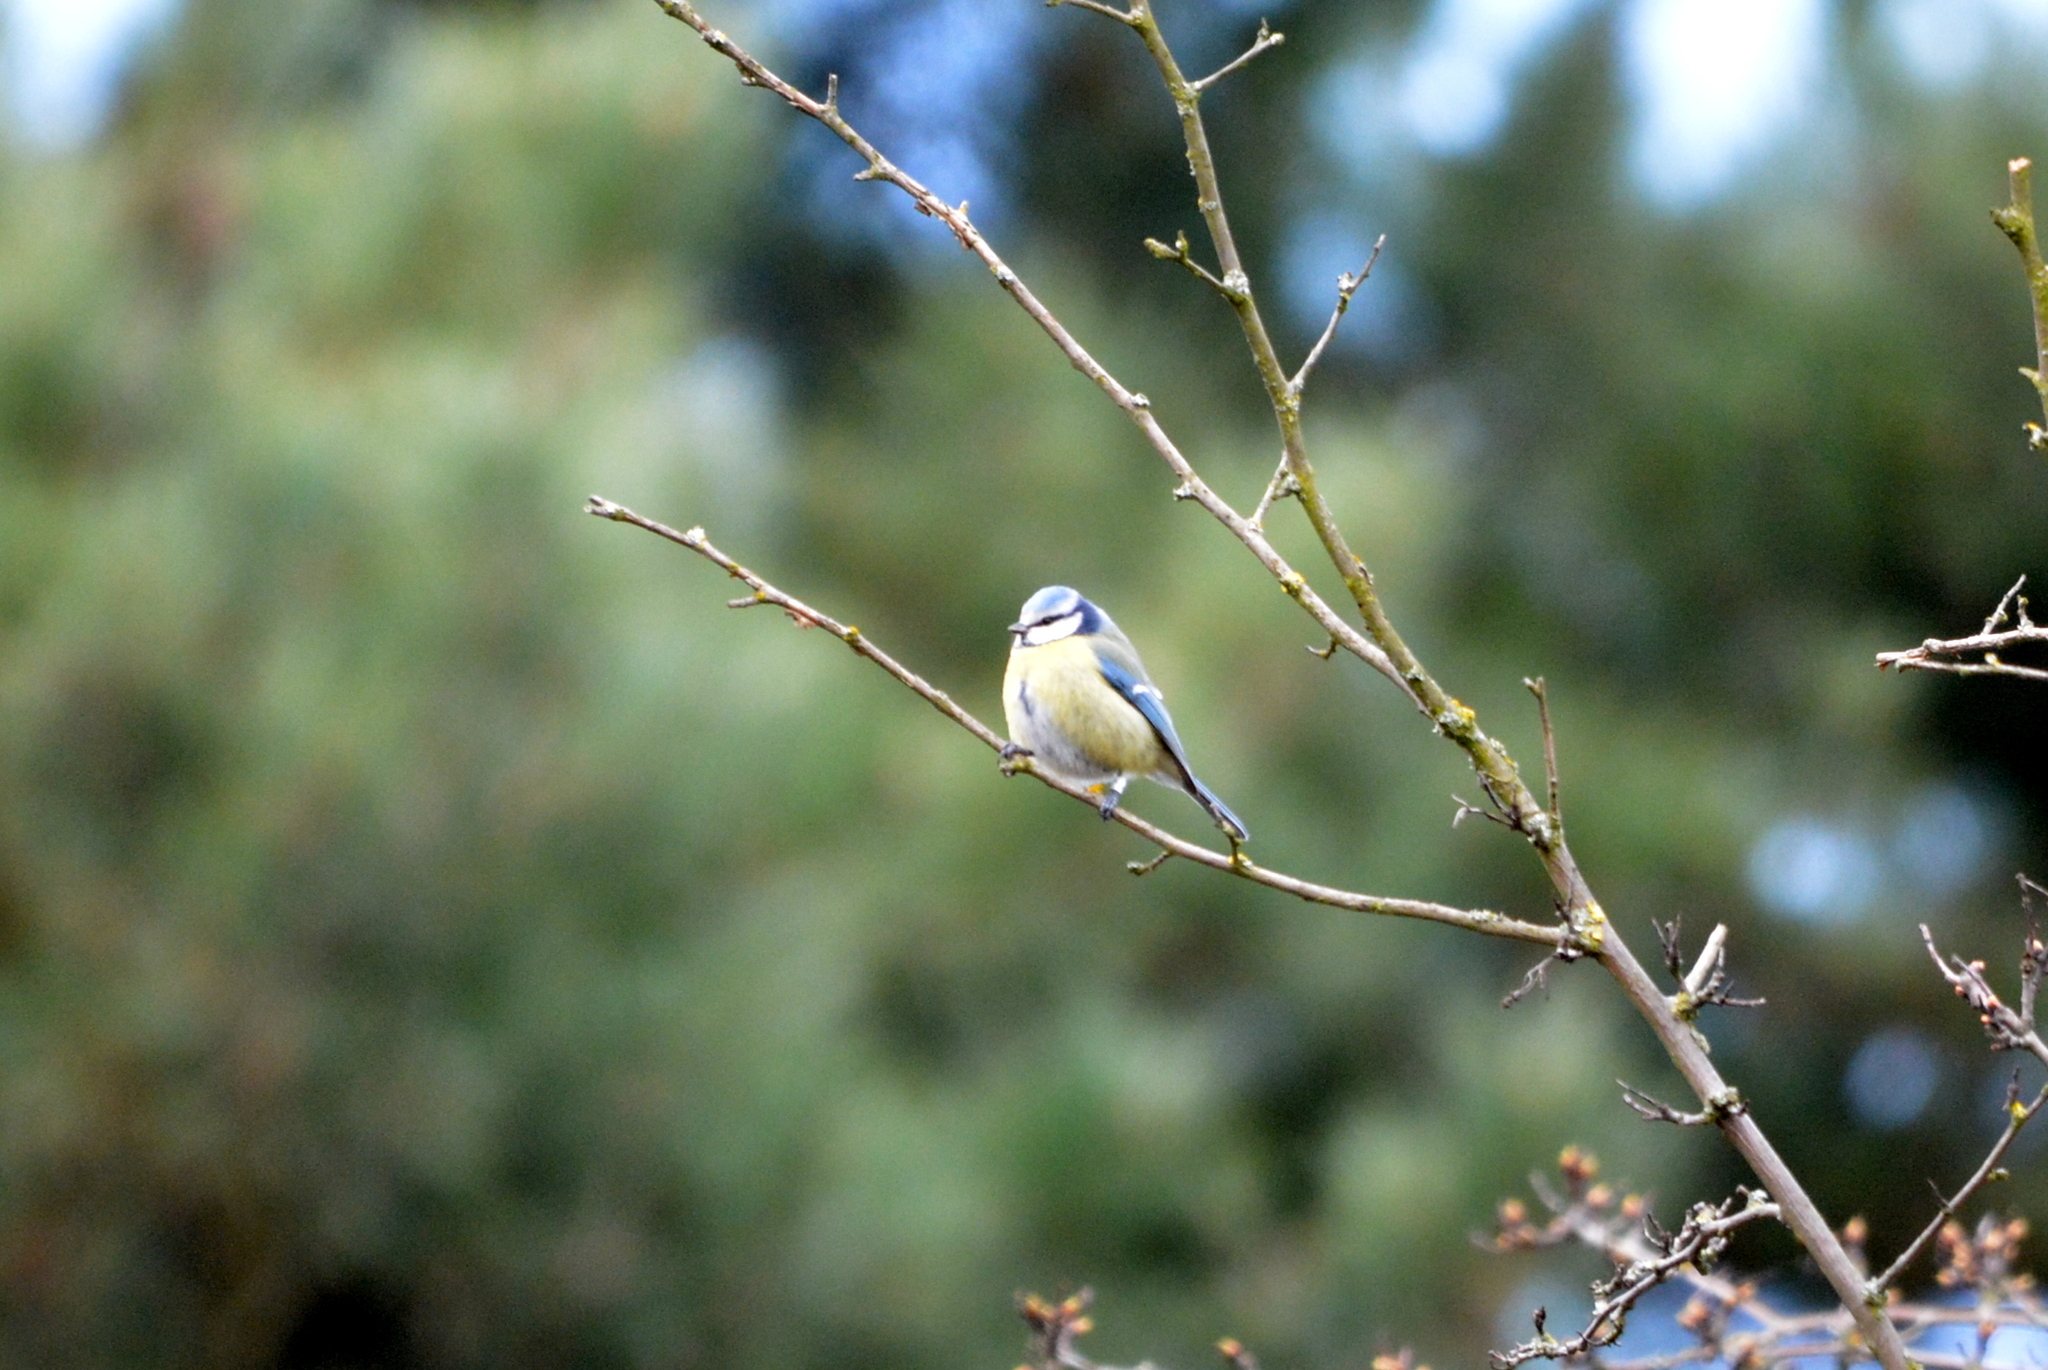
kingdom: Animalia
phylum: Chordata
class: Aves
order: Passeriformes
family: Paridae
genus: Cyanistes
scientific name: Cyanistes caeruleus
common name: Eurasian blue tit
